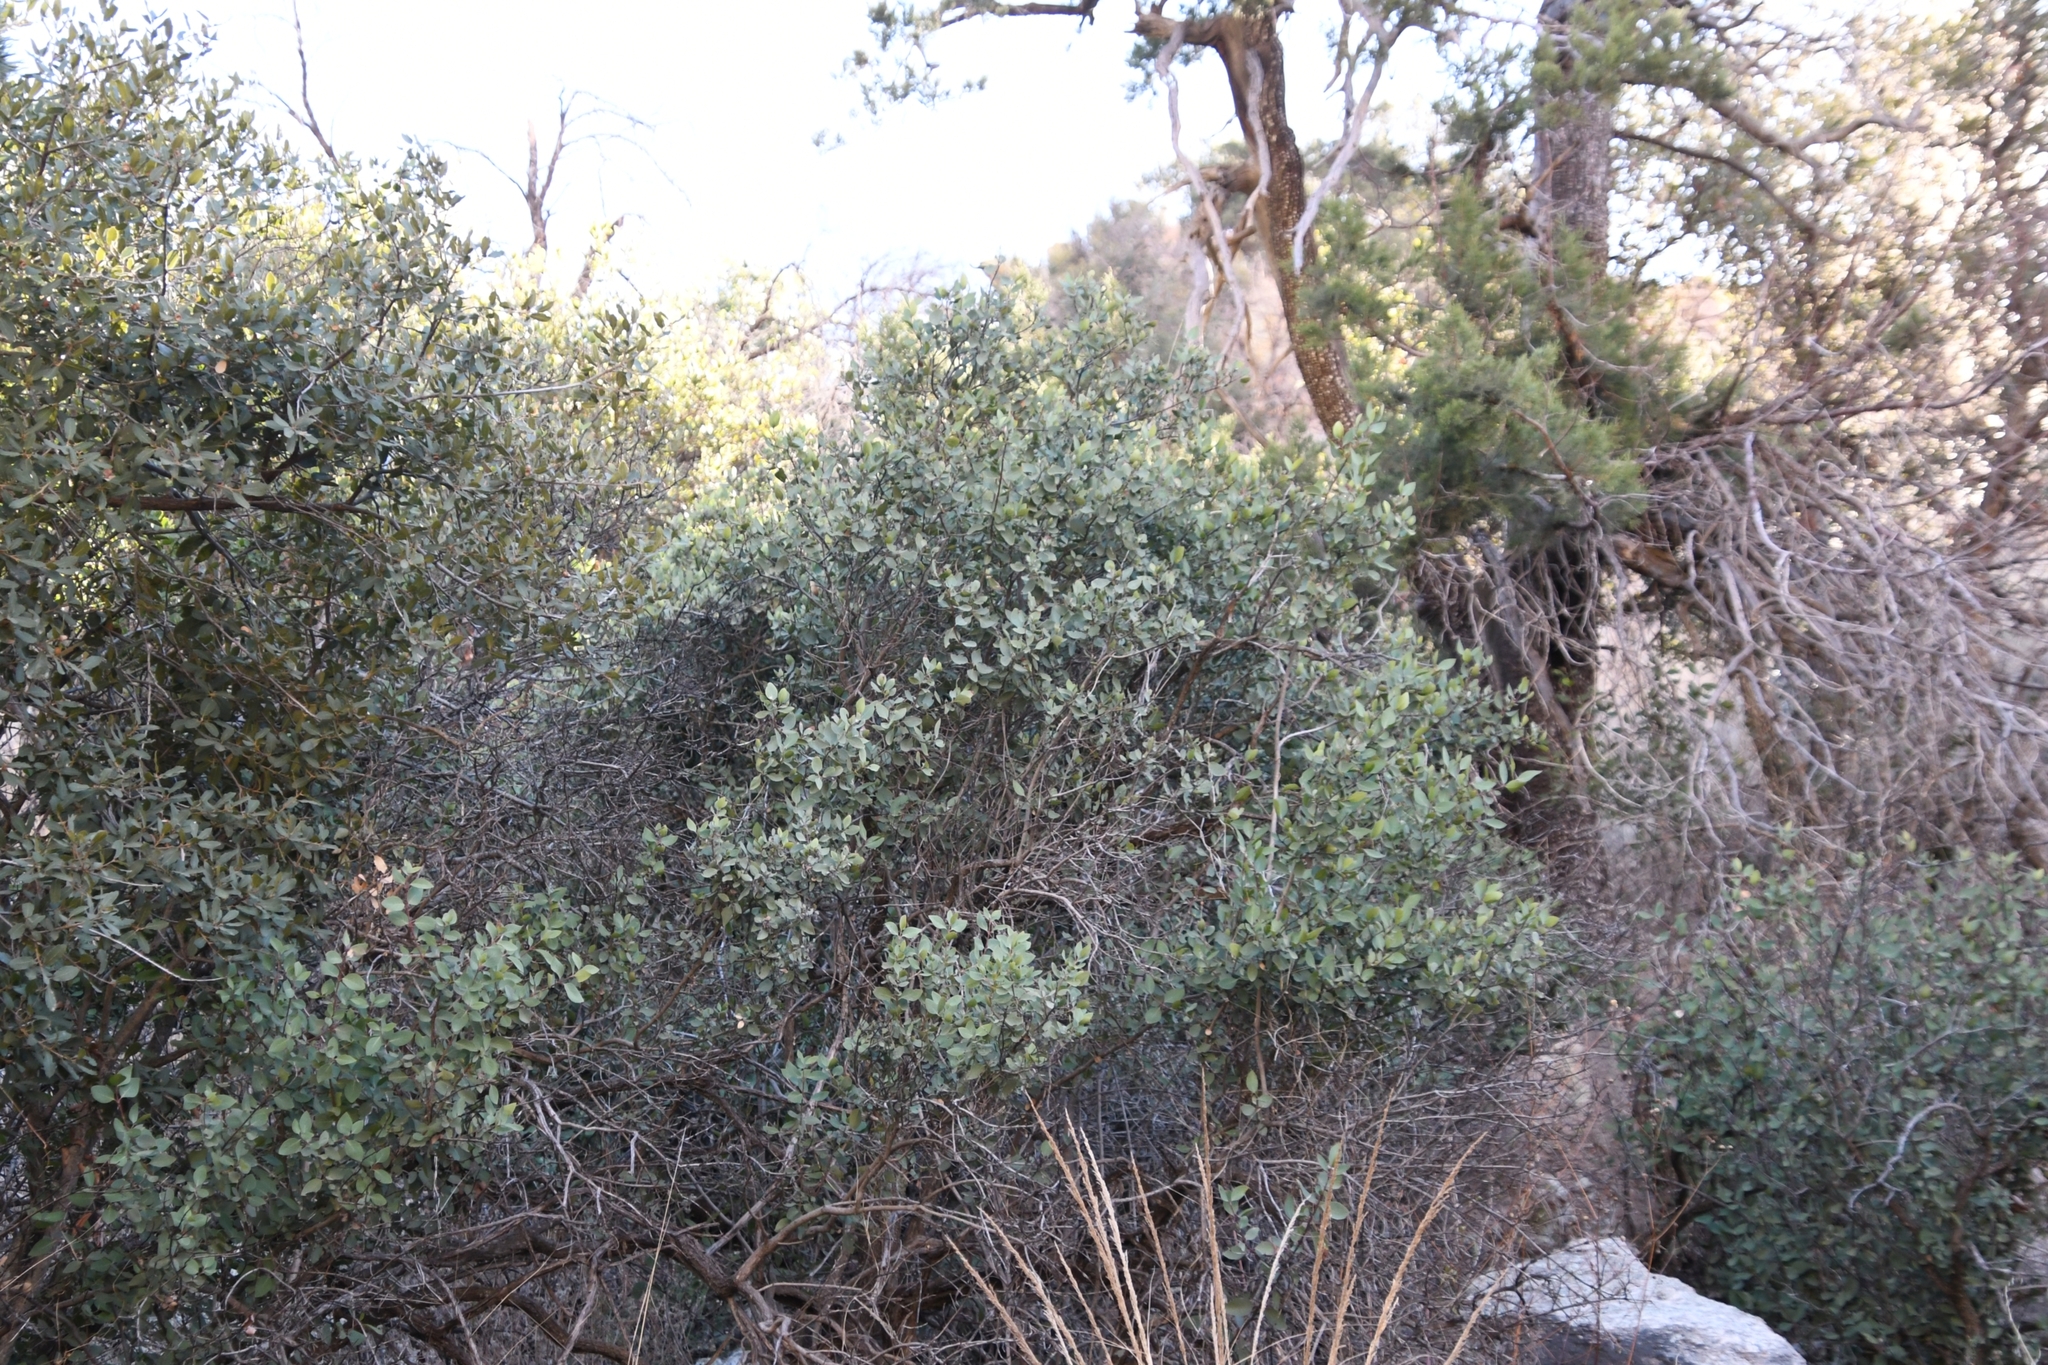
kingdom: Plantae
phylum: Tracheophyta
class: Magnoliopsida
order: Garryales
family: Garryaceae
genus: Garrya
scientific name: Garrya wrightii
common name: Wright's silktassel
